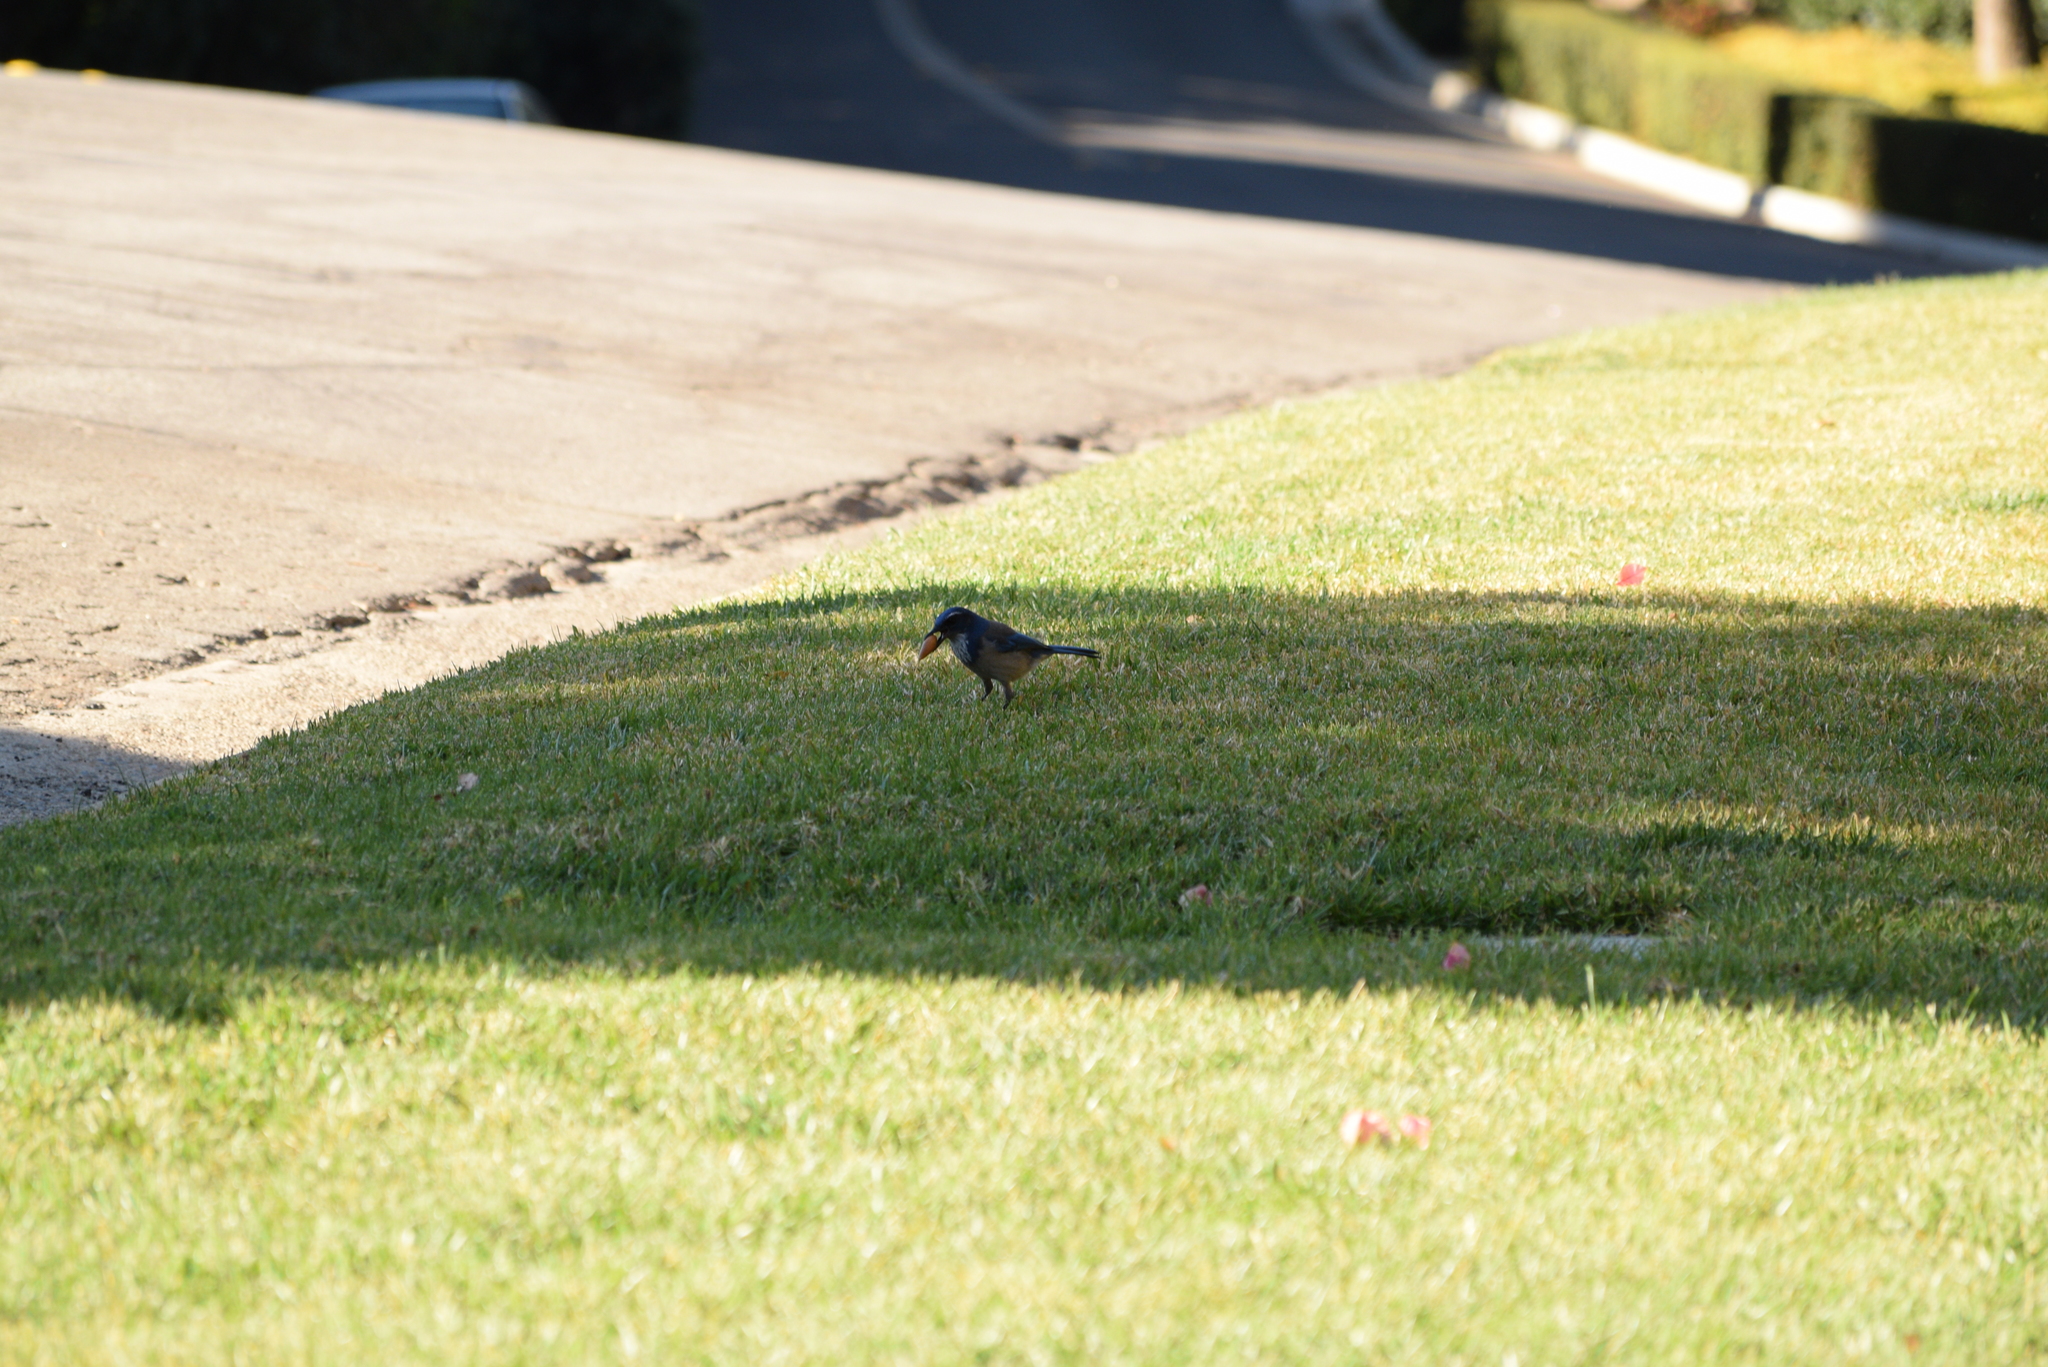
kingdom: Animalia
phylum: Chordata
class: Aves
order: Passeriformes
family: Corvidae
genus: Aphelocoma
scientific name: Aphelocoma californica
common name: California scrub-jay
